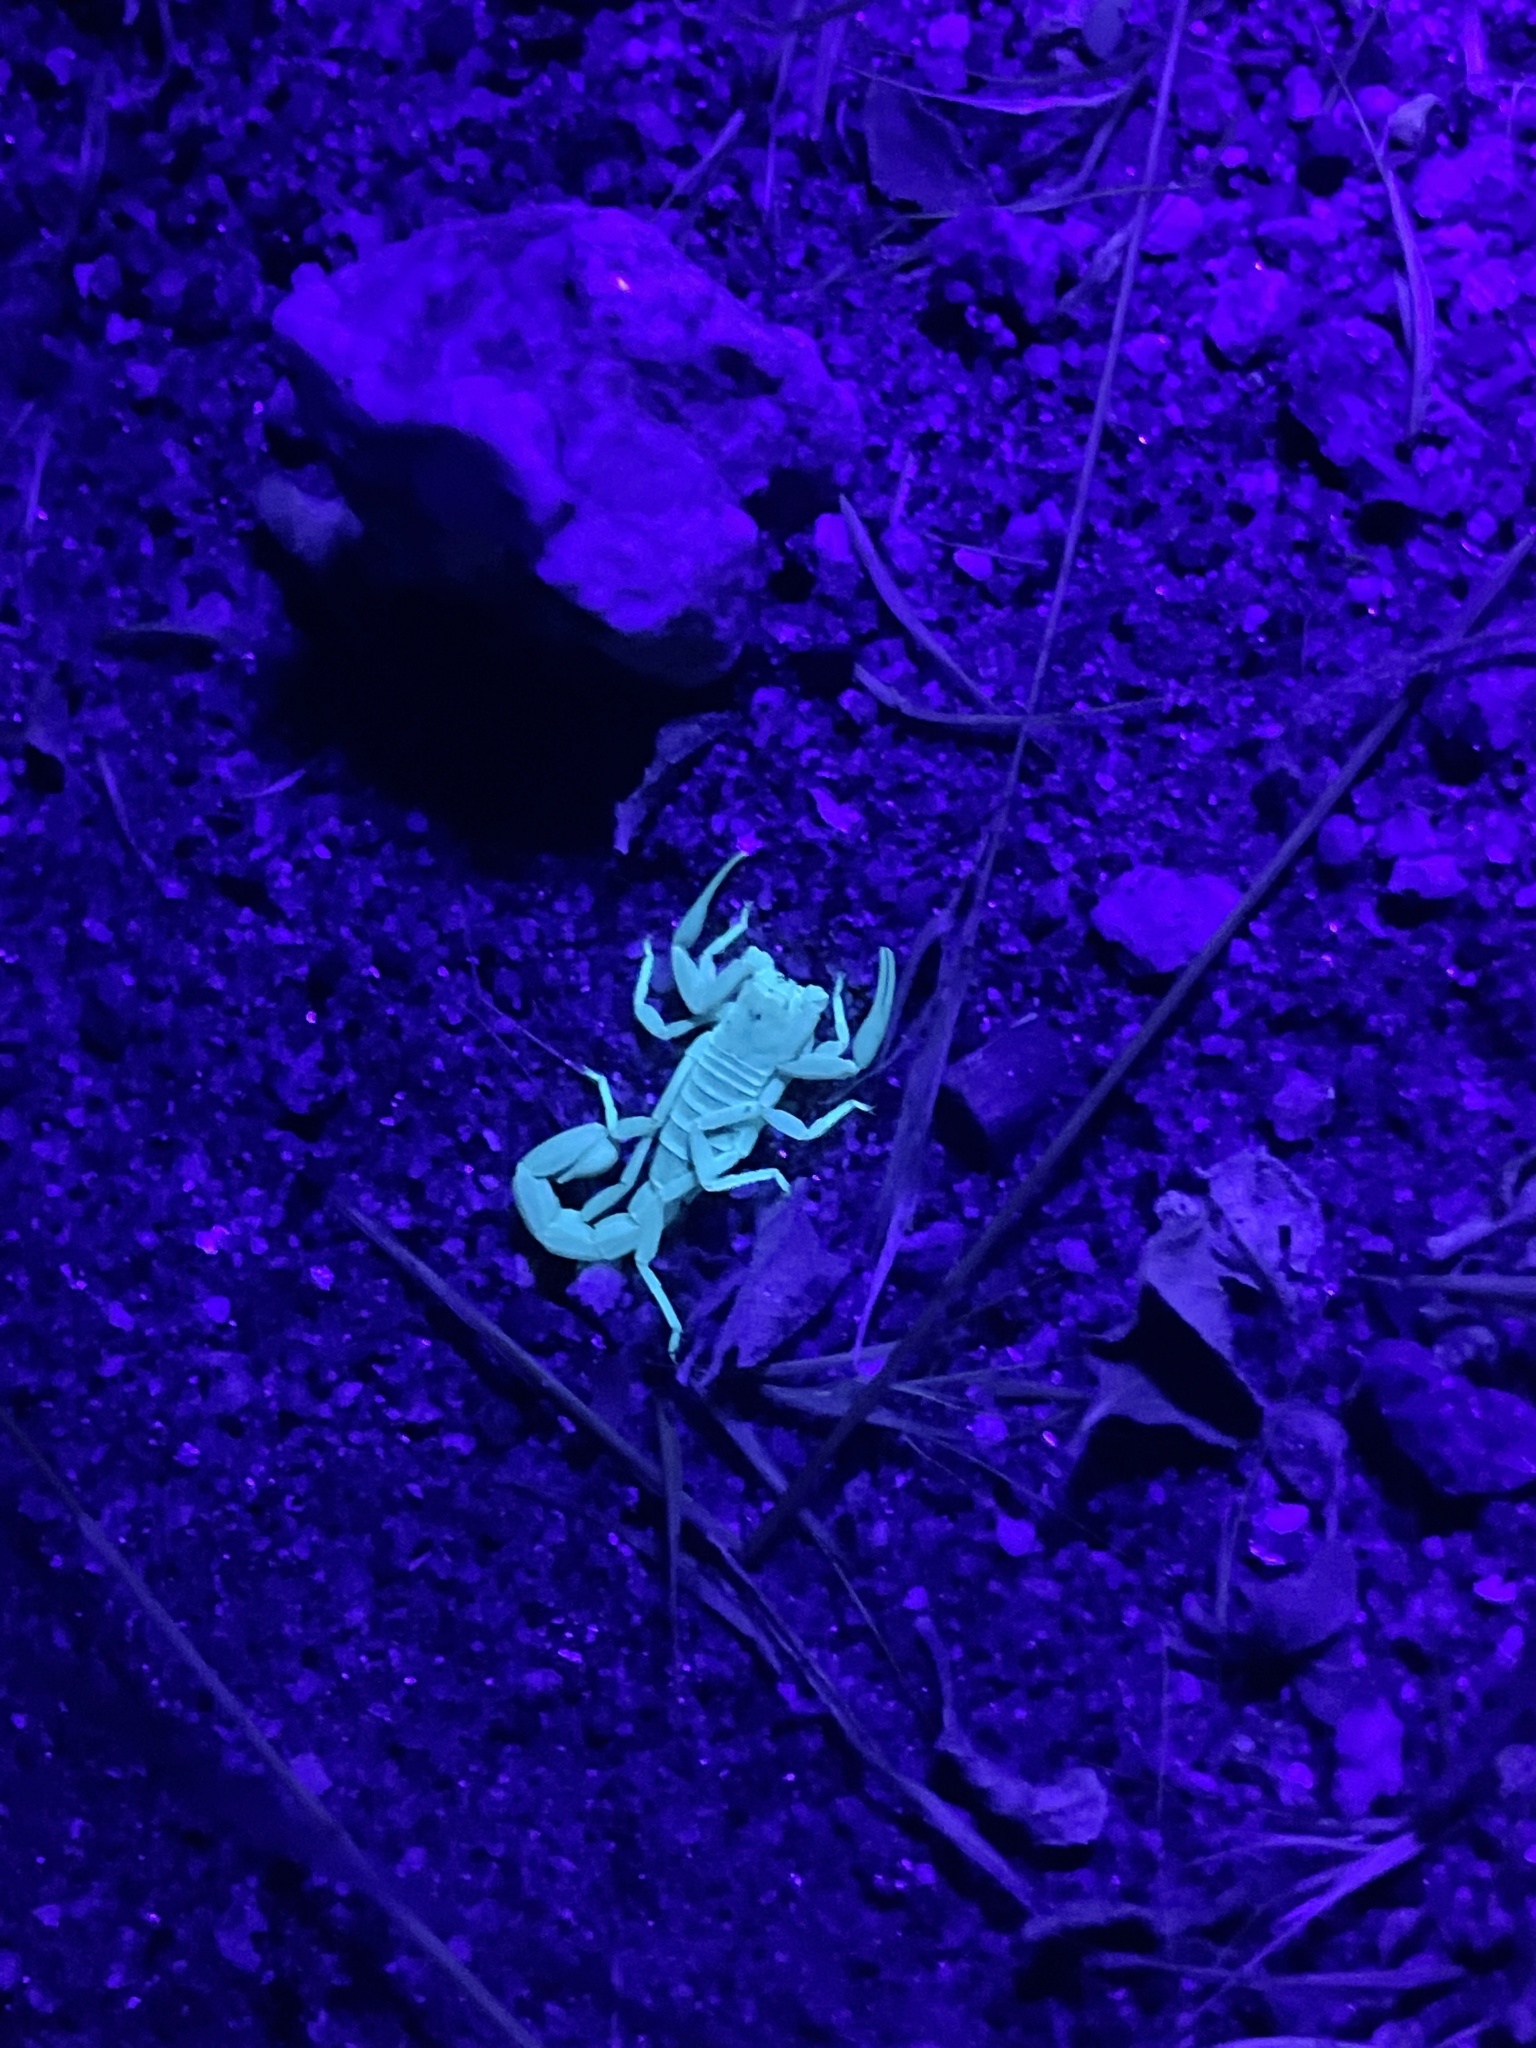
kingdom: Animalia
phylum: Arthropoda
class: Arachnida
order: Scorpiones
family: Vaejovidae
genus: Paravaejovis
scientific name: Paravaejovis waeringi
